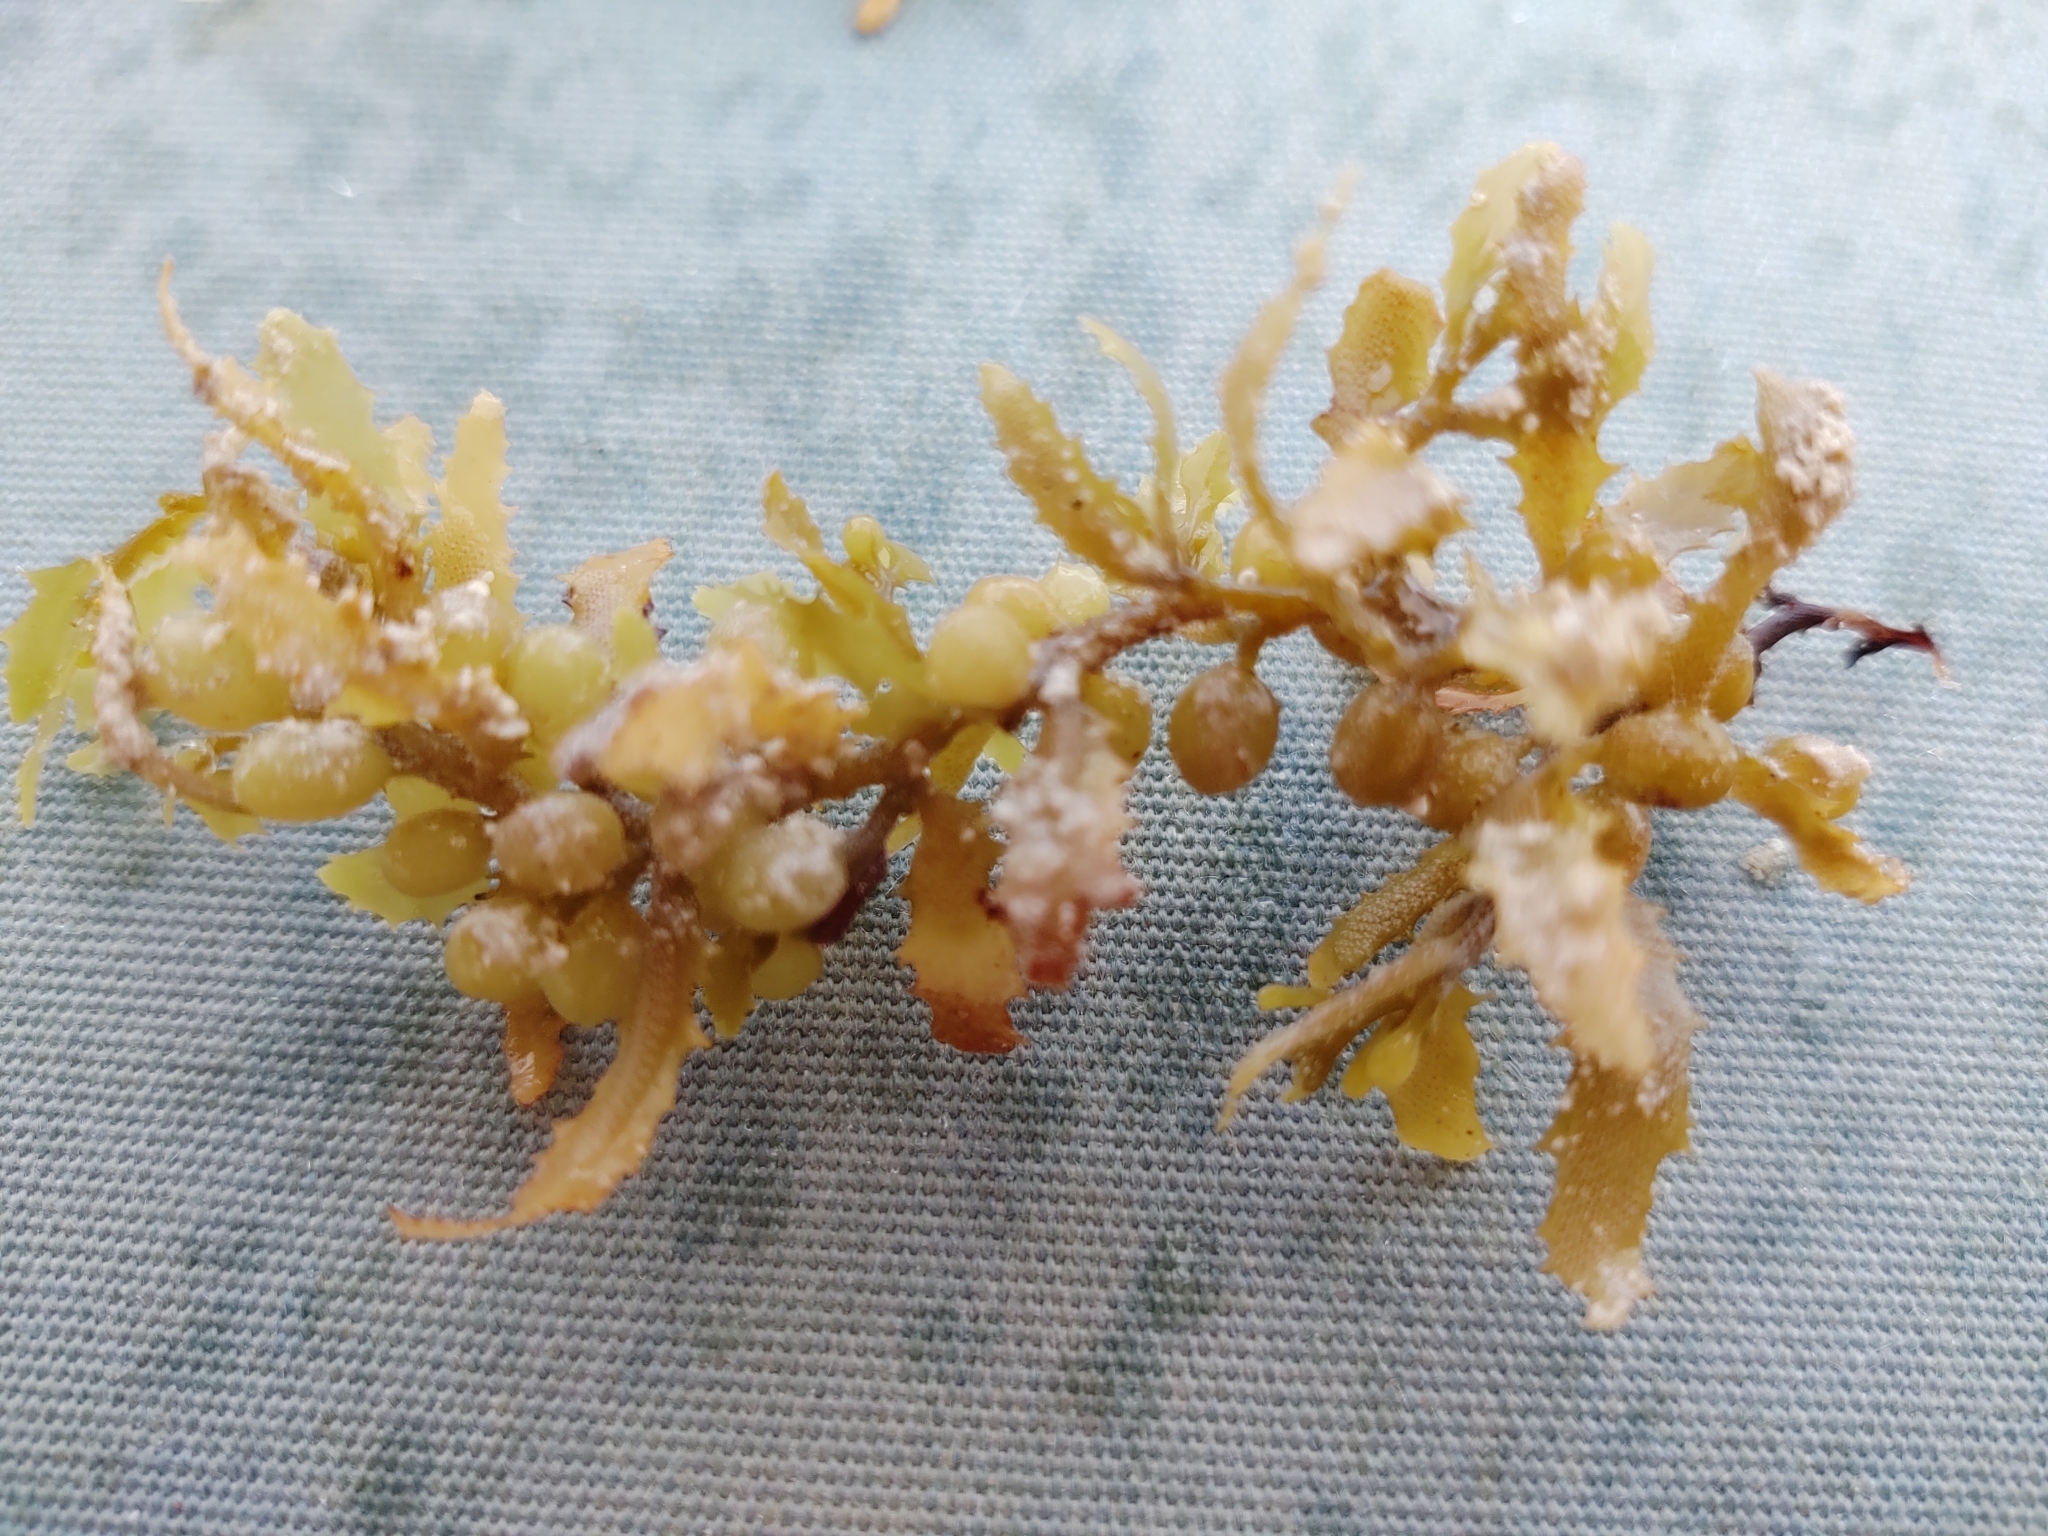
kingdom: Chromista
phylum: Ochrophyta
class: Phaeophyceae
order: Fucales
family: Sargassaceae
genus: Sargassum
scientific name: Sargassum fluitans
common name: Sargassum seaweed
